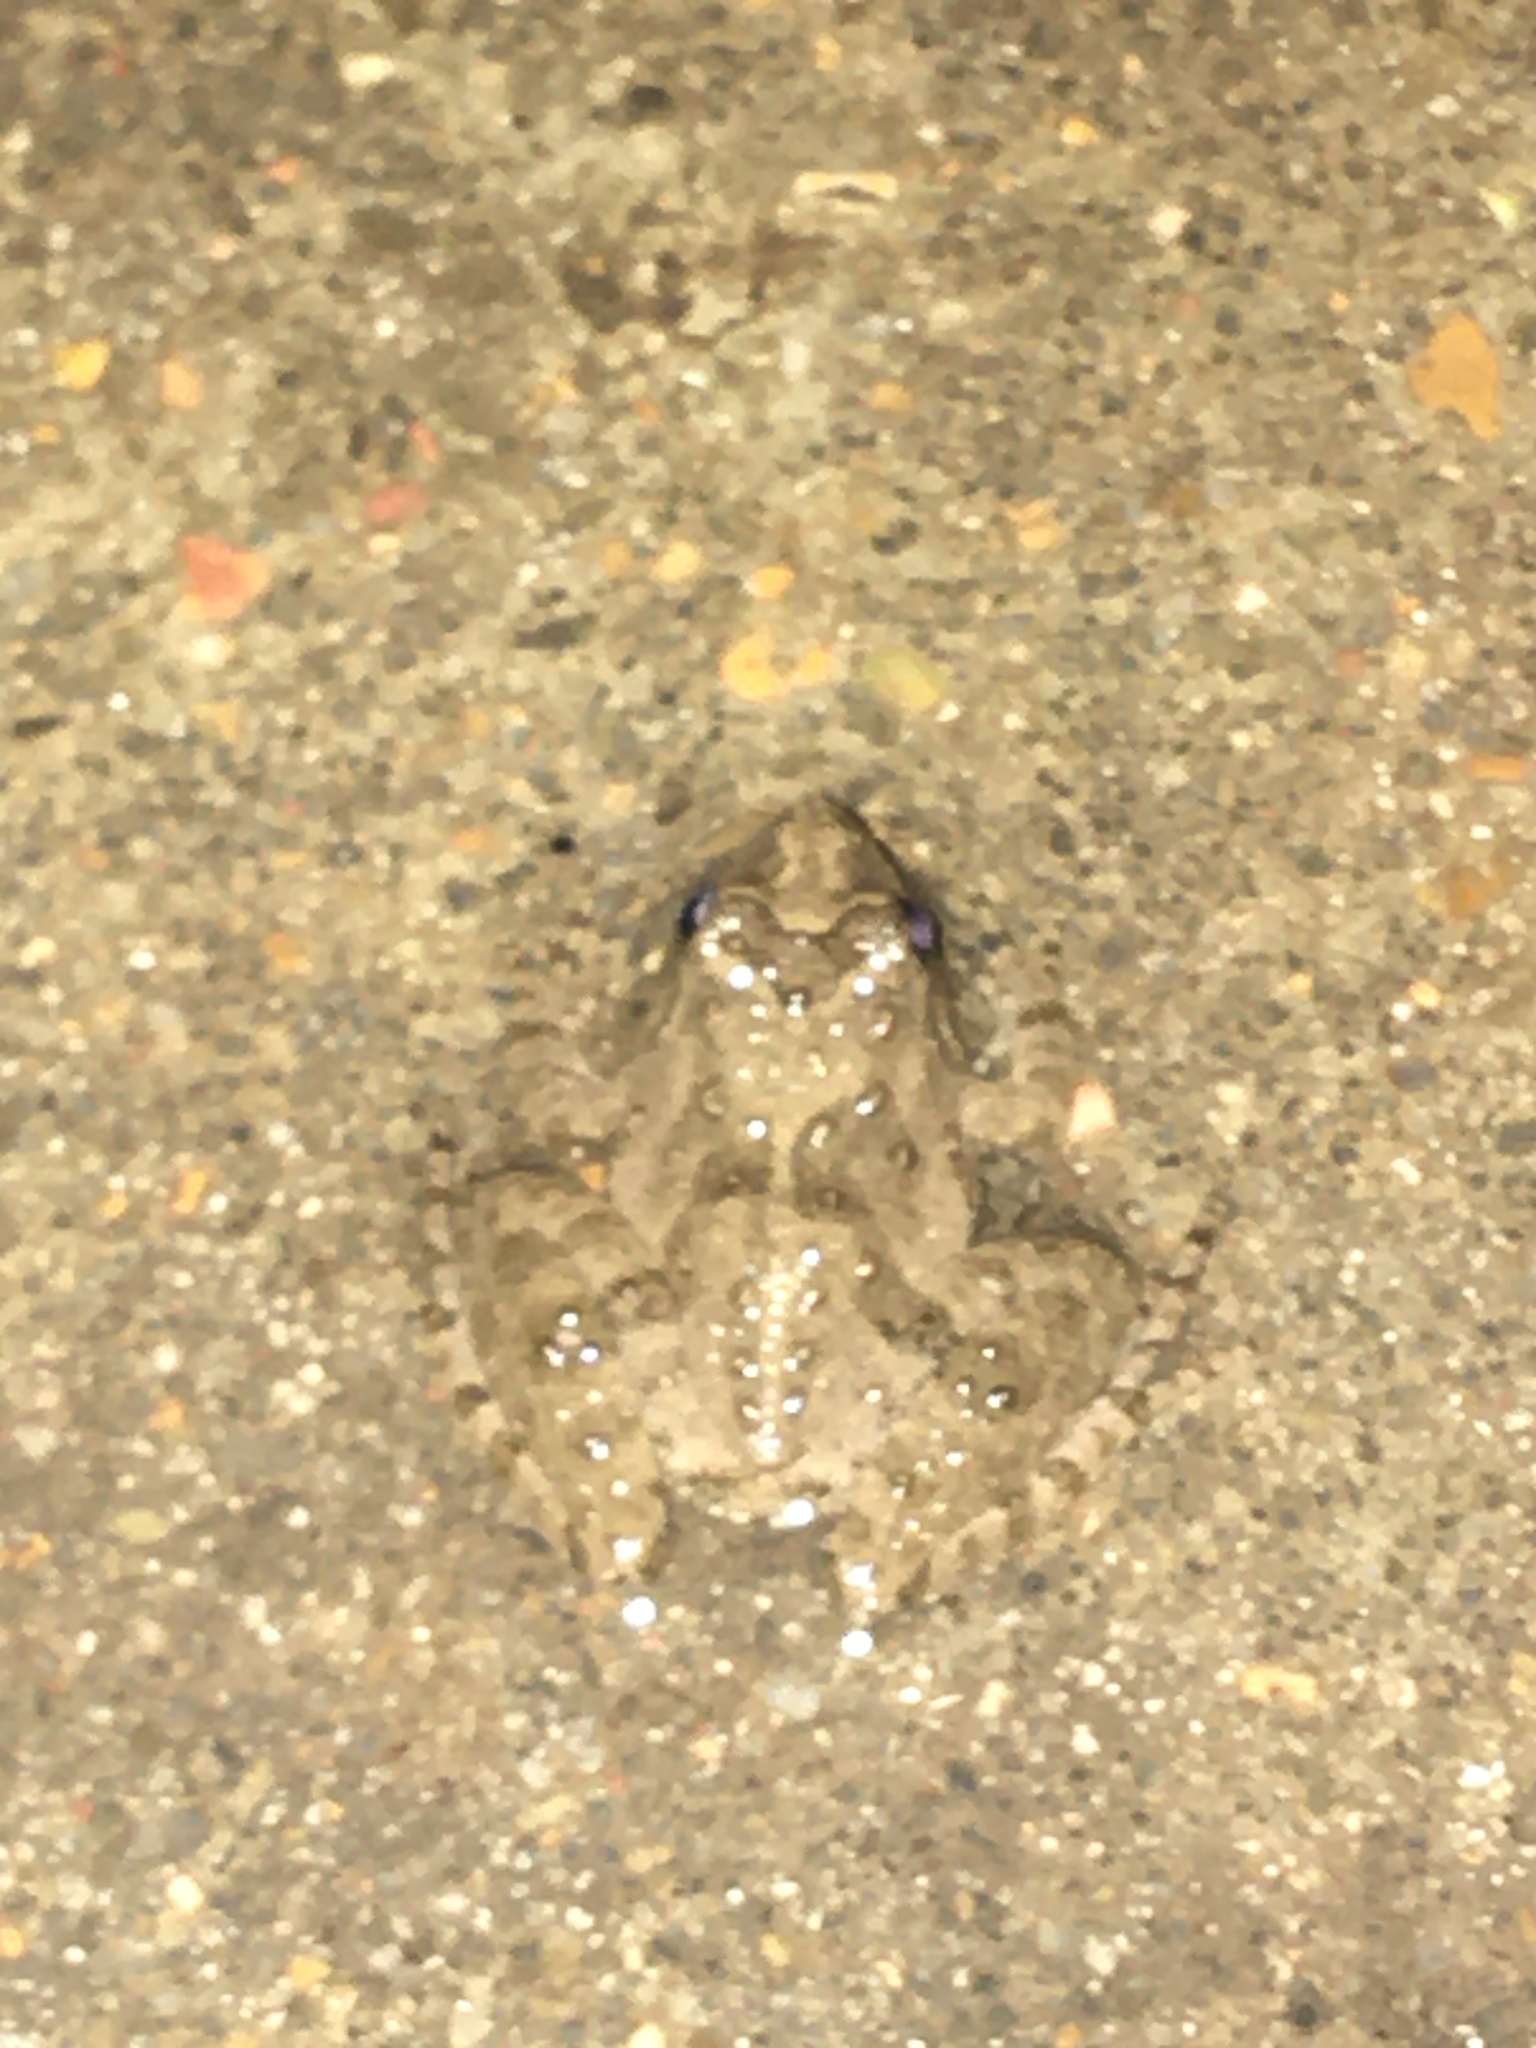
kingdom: Animalia
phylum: Chordata
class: Amphibia
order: Anura
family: Hylidae
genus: Acris
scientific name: Acris blanchardi
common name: Blanchard's cricket frog
